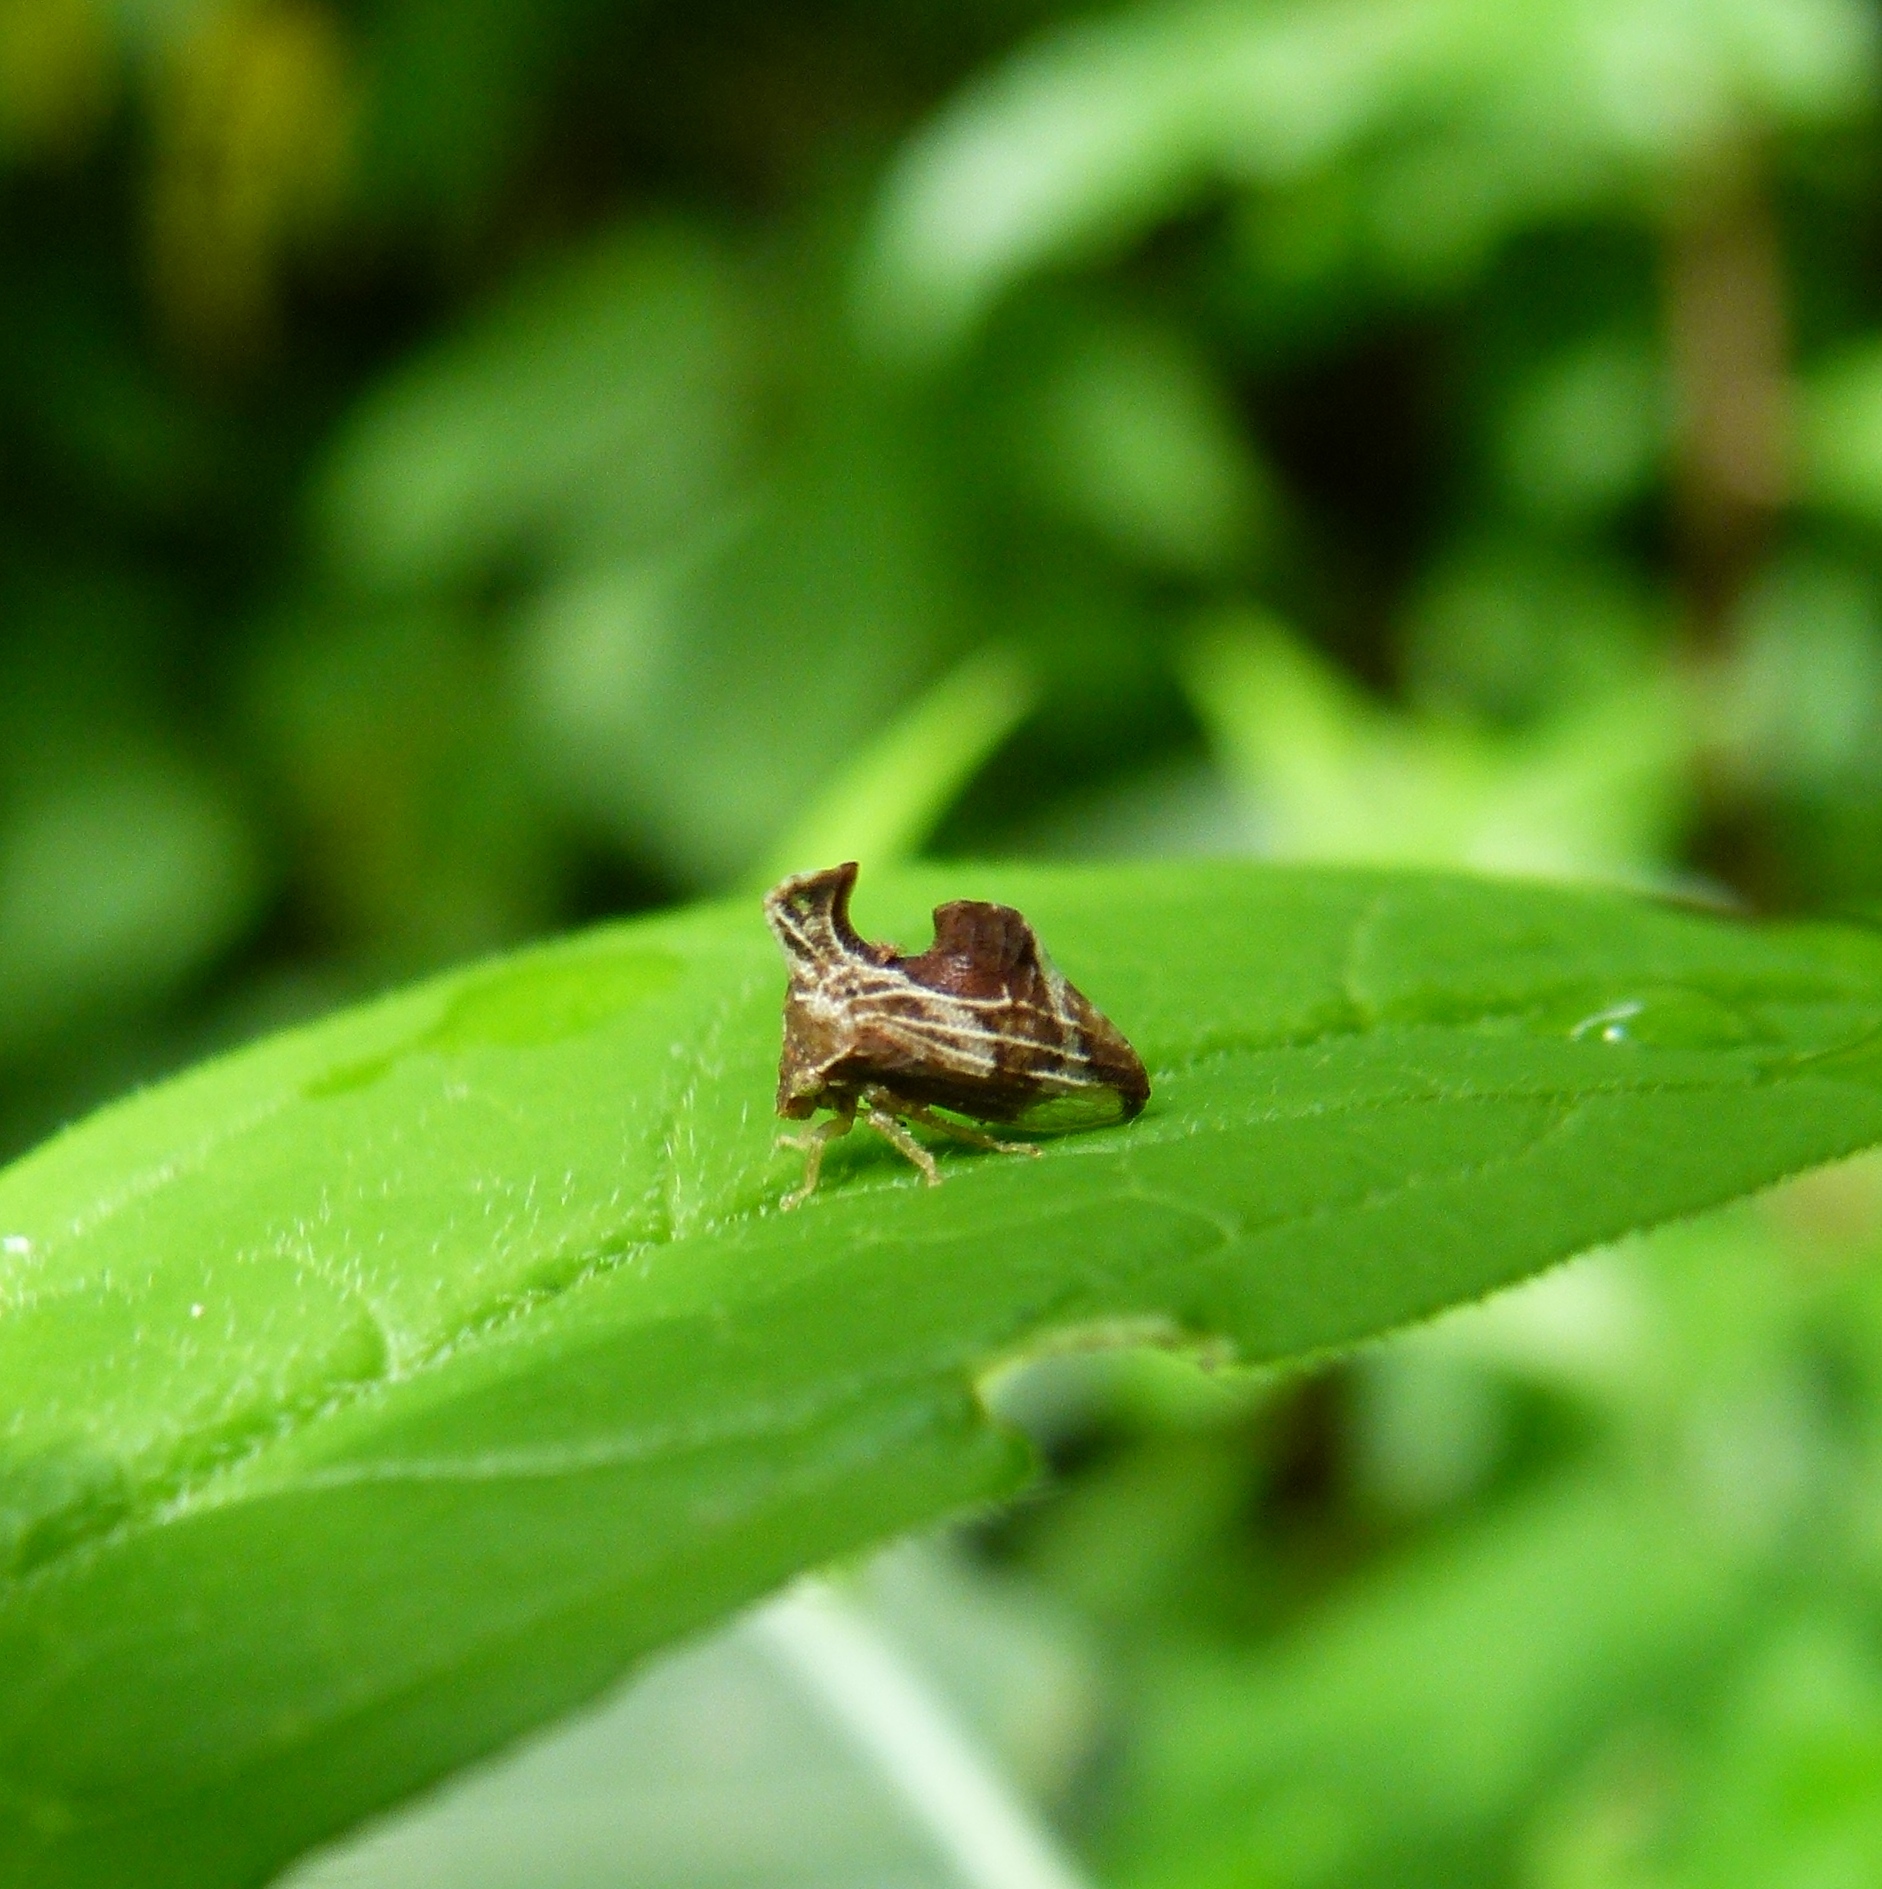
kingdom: Animalia
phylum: Arthropoda
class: Insecta
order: Hemiptera
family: Membracidae
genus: Entylia
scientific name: Entylia carinata
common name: Keeled treehopper
